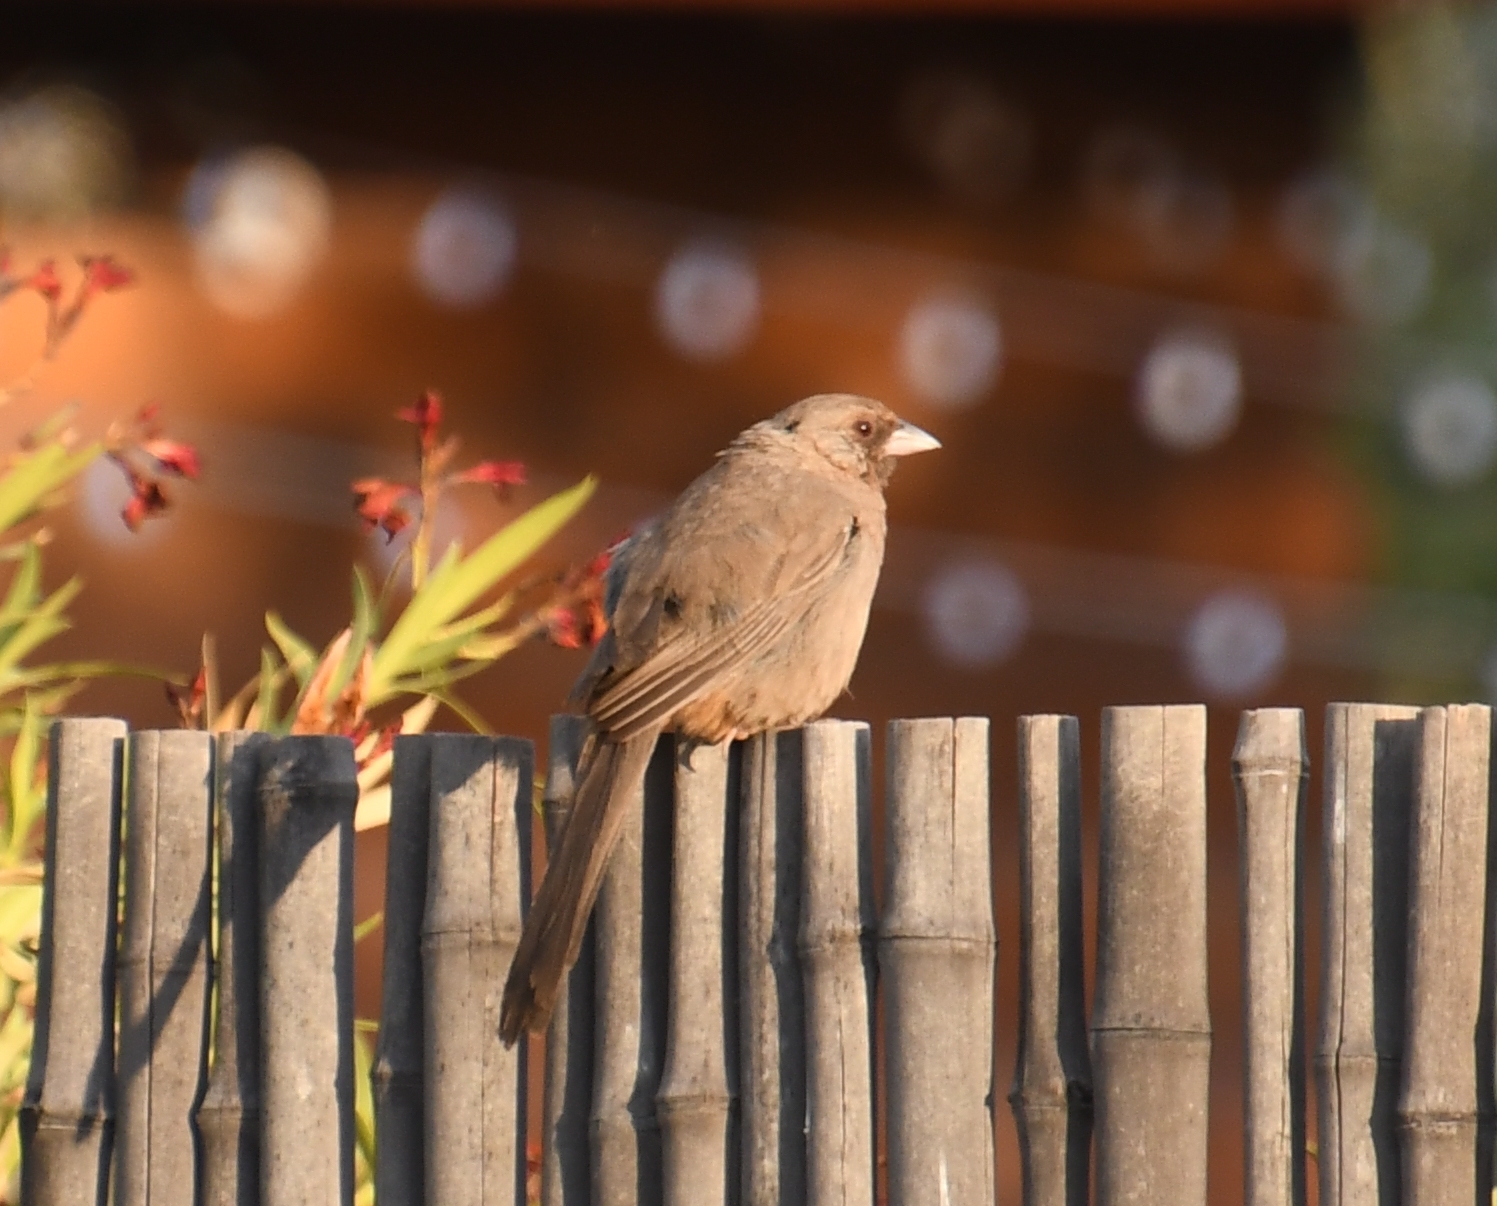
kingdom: Animalia
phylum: Chordata
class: Aves
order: Passeriformes
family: Passerellidae
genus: Melozone
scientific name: Melozone aberti
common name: Abert's towhee
